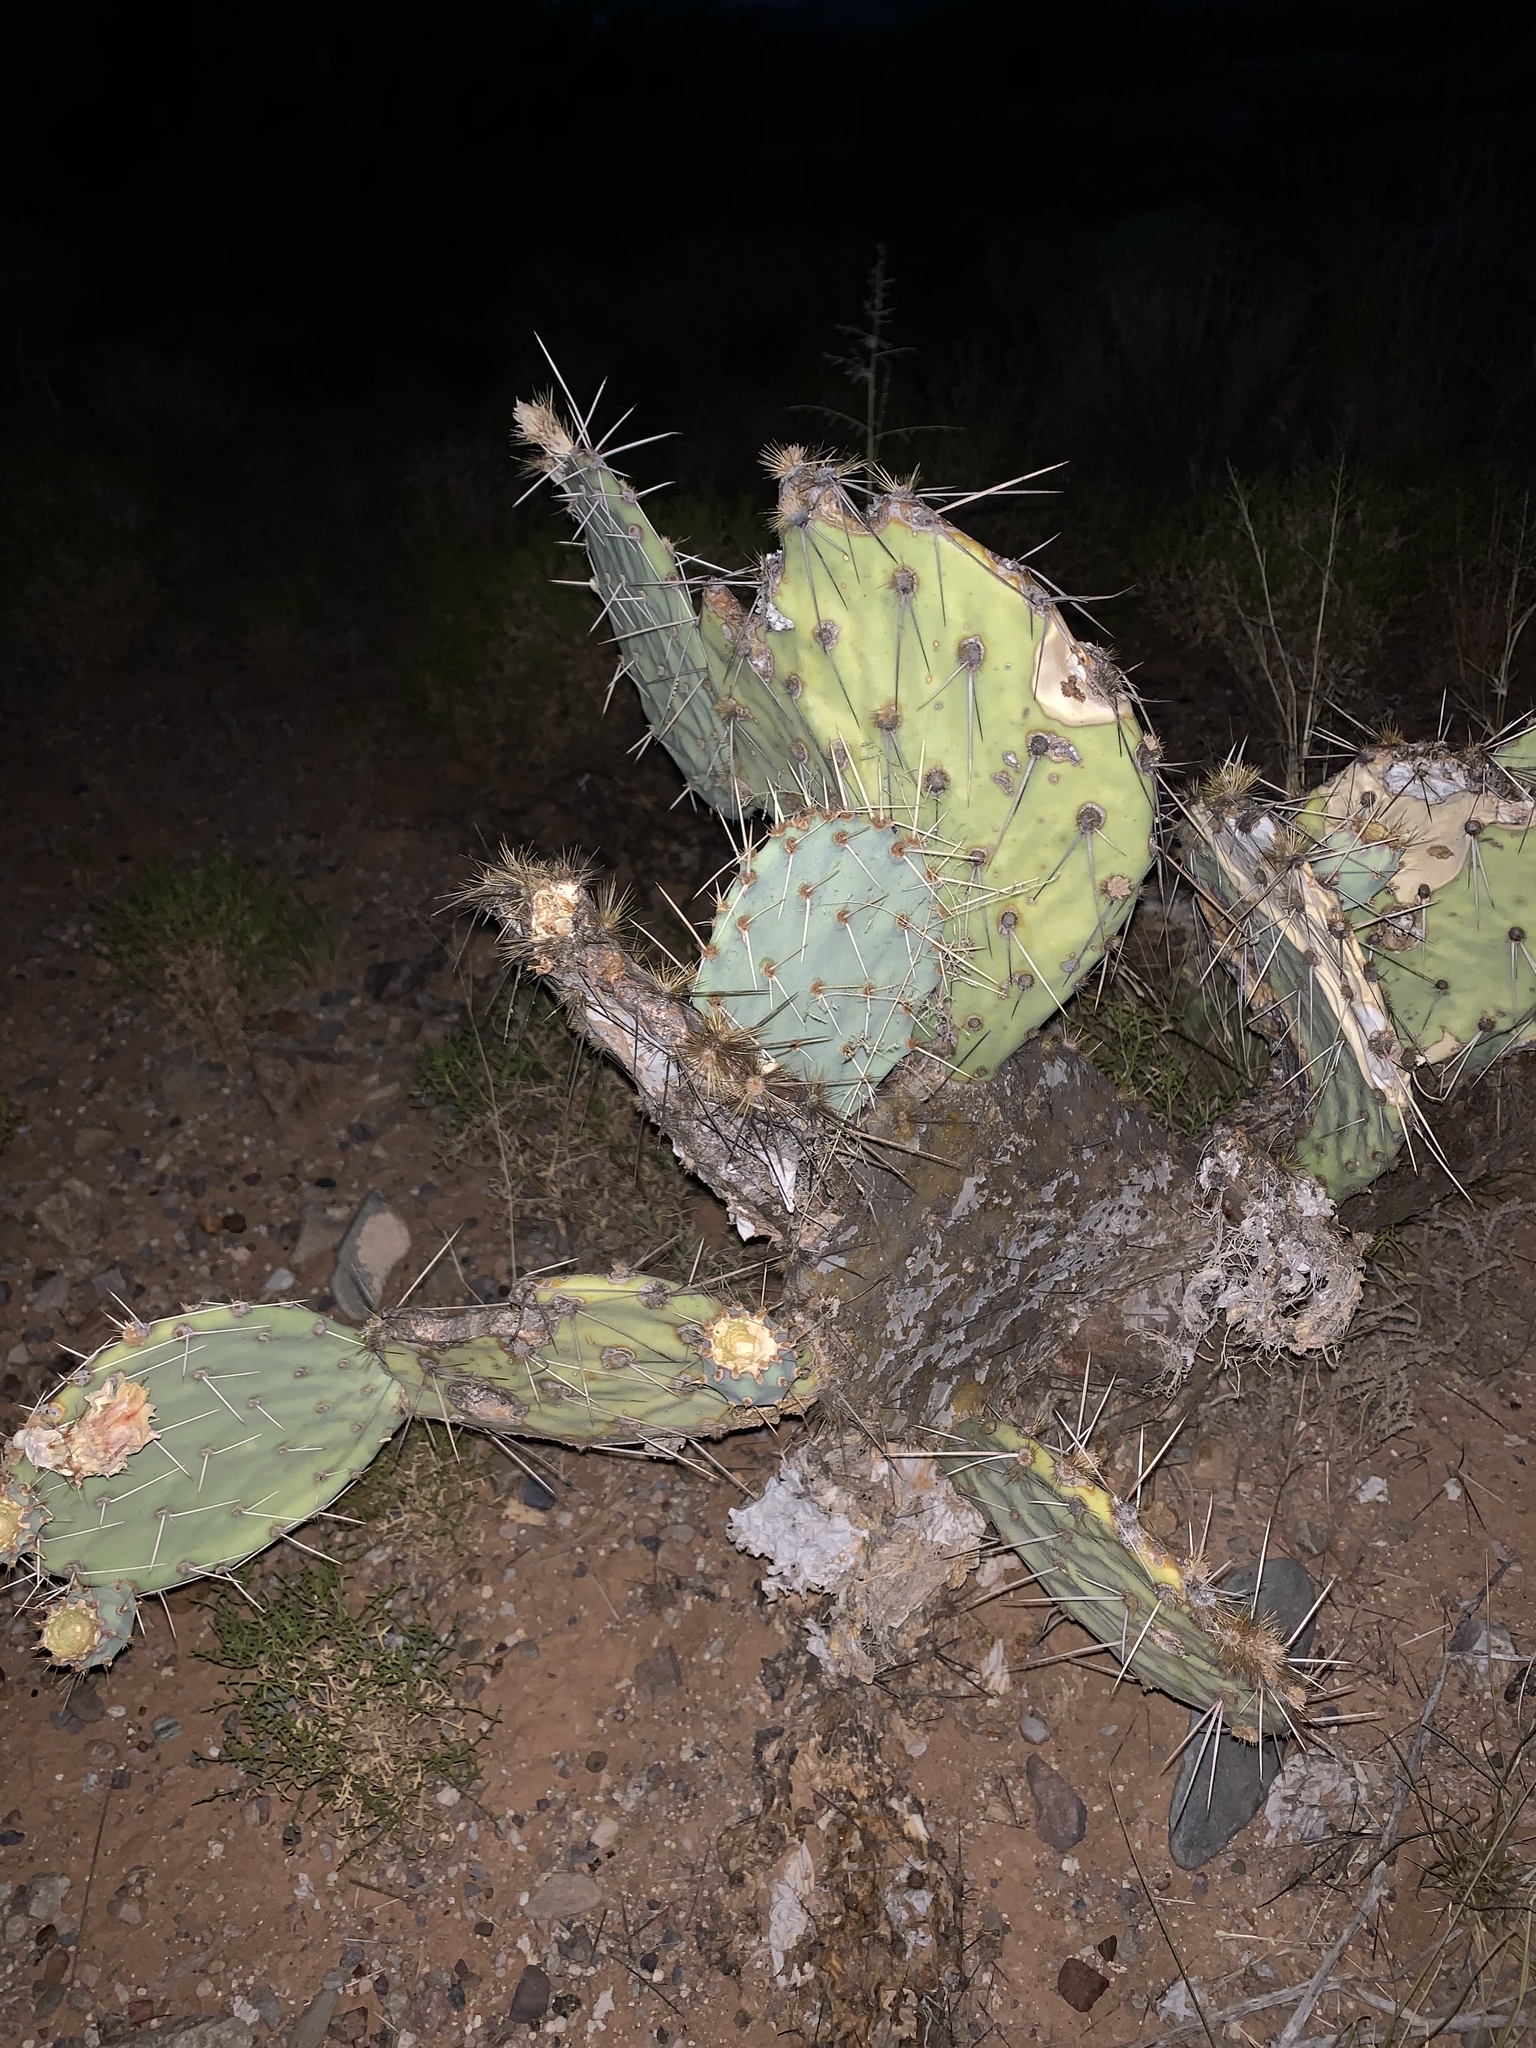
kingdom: Plantae
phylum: Tracheophyta
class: Magnoliopsida
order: Caryophyllales
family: Cactaceae
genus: Opuntia
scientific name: Opuntia phaeacantha
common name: New mexico prickly-pear
